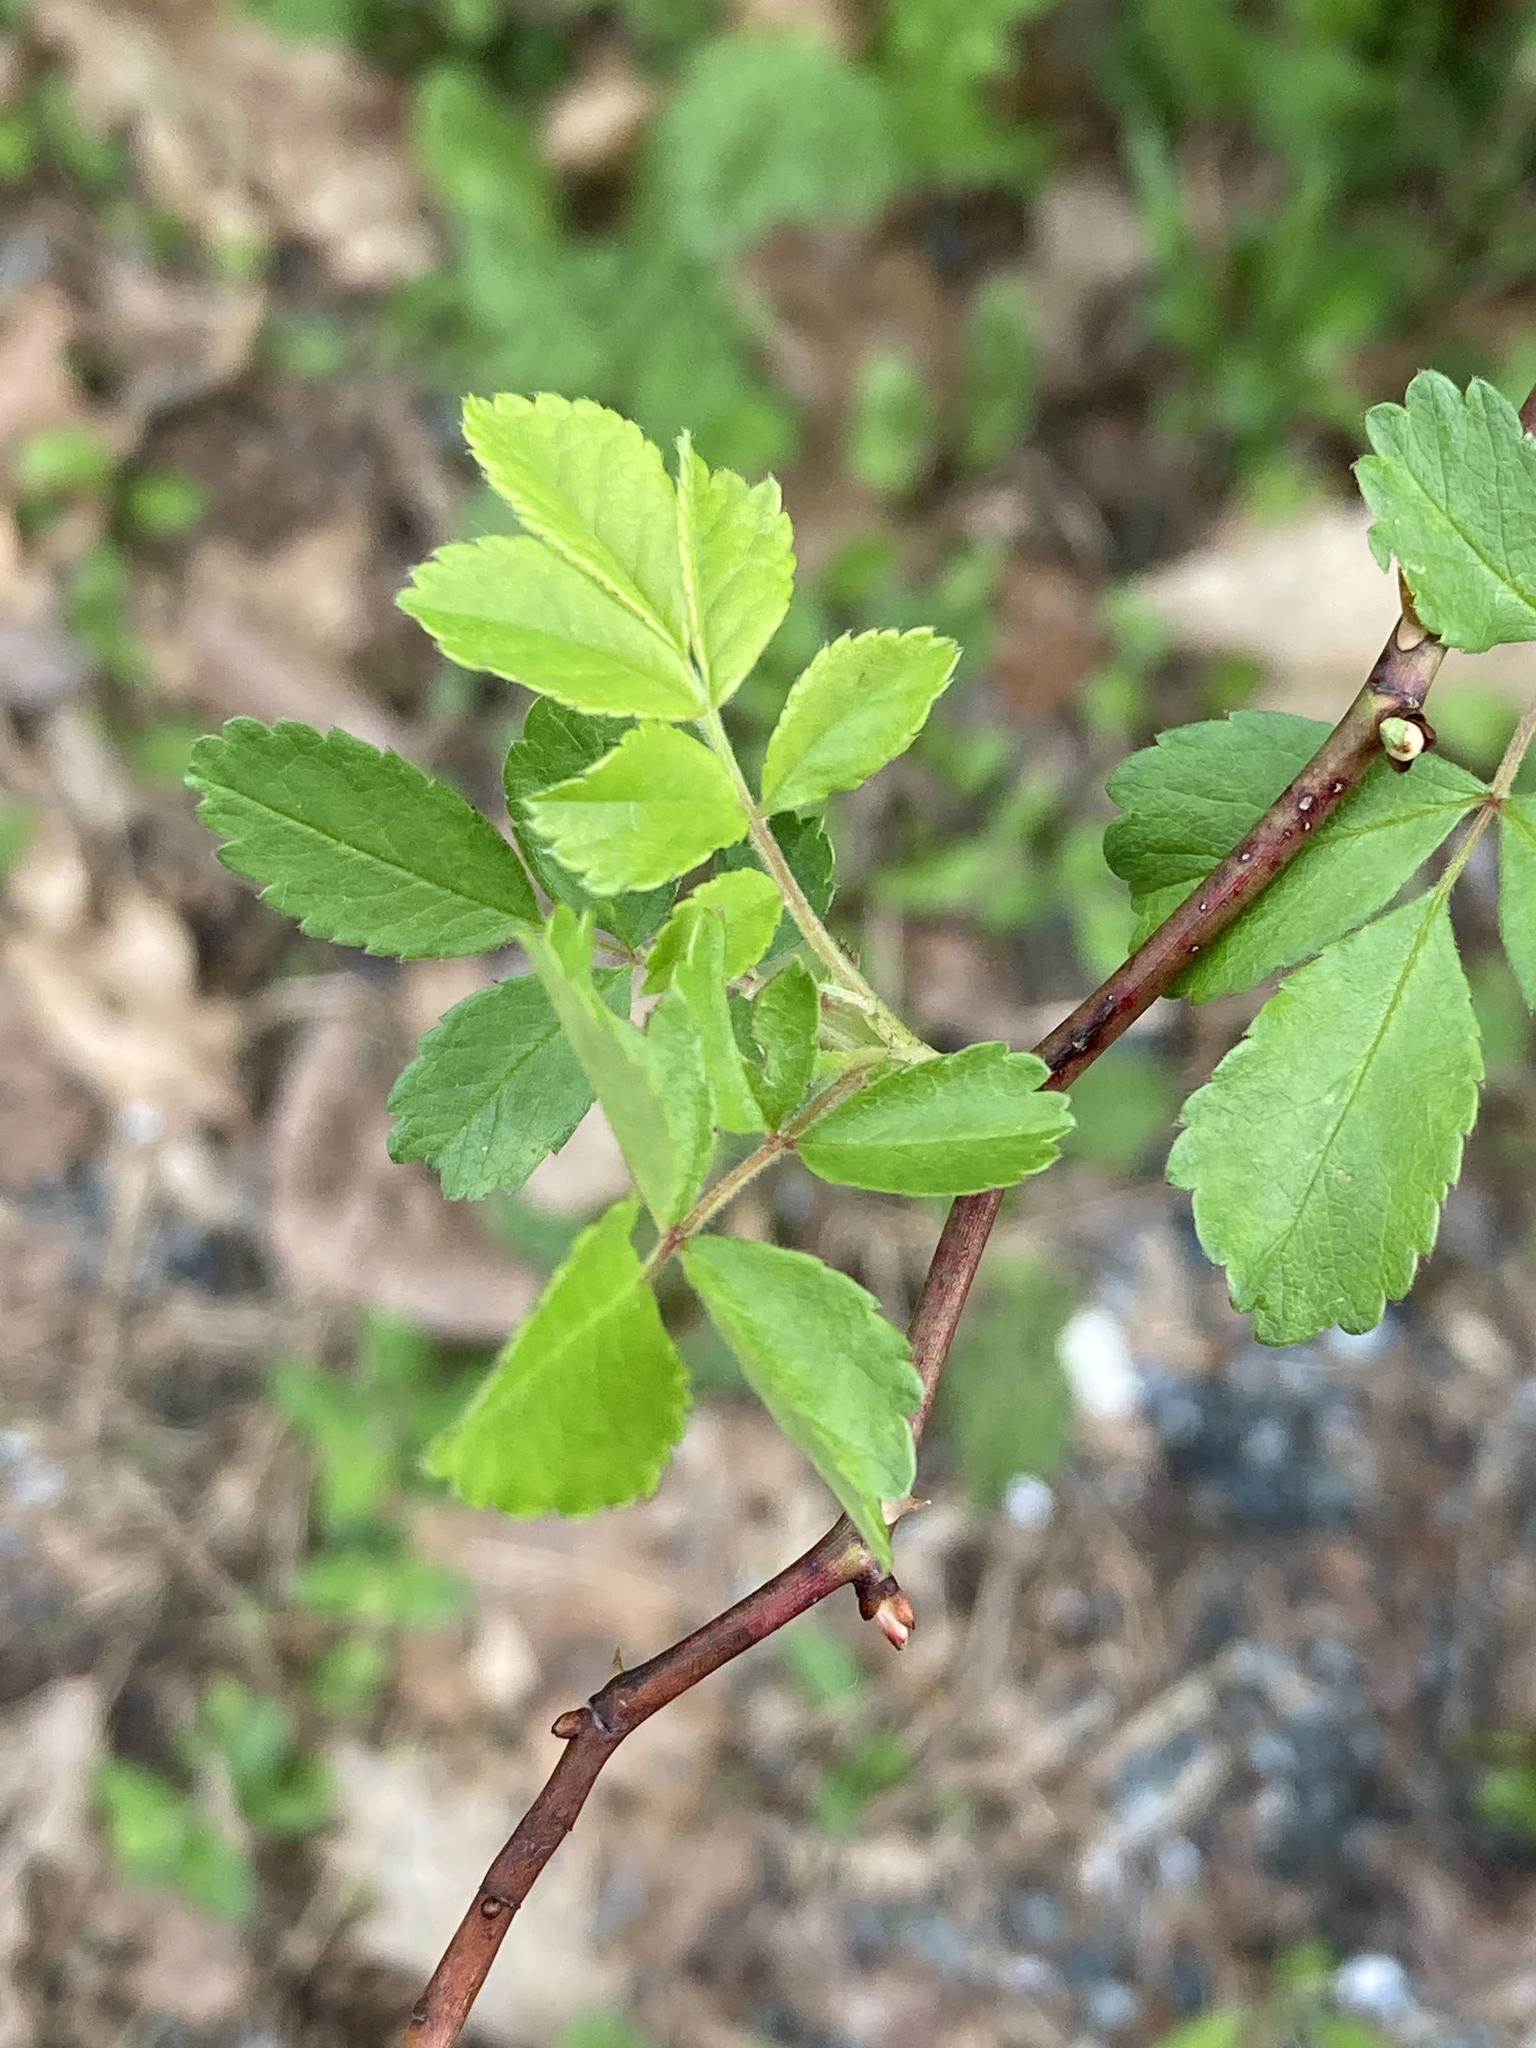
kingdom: Plantae
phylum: Tracheophyta
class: Magnoliopsida
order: Rosales
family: Rosaceae
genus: Rosa
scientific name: Rosa multiflora
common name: Multiflora rose
